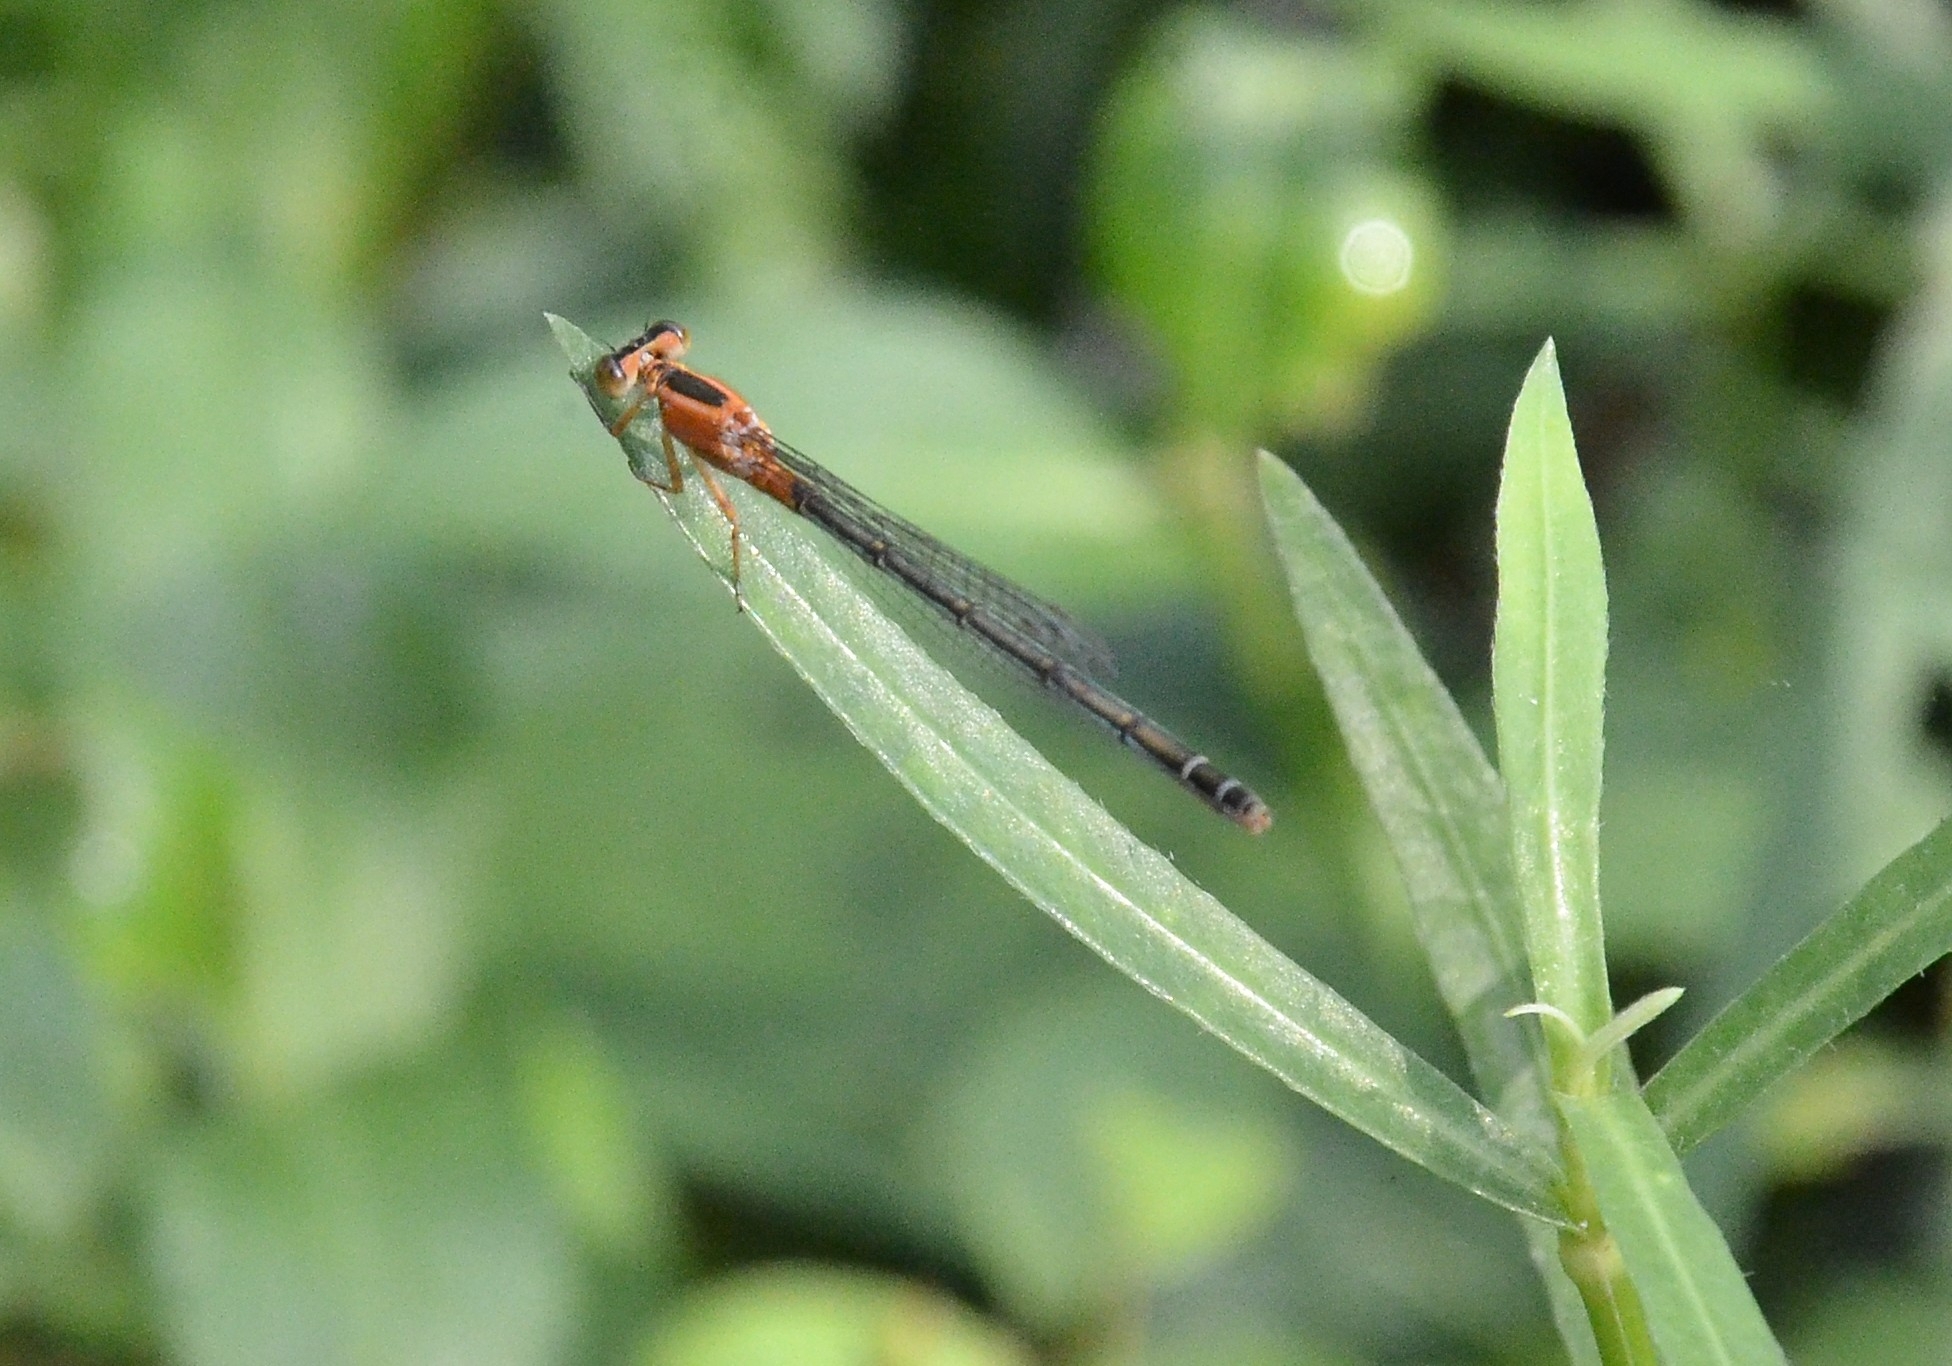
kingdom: Animalia
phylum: Arthropoda
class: Insecta
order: Odonata
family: Coenagrionidae
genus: Ischnura
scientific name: Ischnura senegalensis
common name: Tropical bluetail
